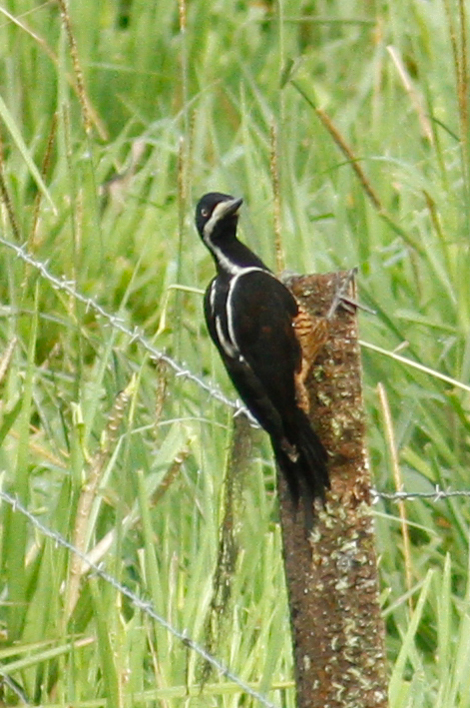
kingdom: Animalia
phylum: Chordata
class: Aves
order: Piciformes
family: Picidae
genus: Campephilus
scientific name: Campephilus pollens
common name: Powerful woodpecker
